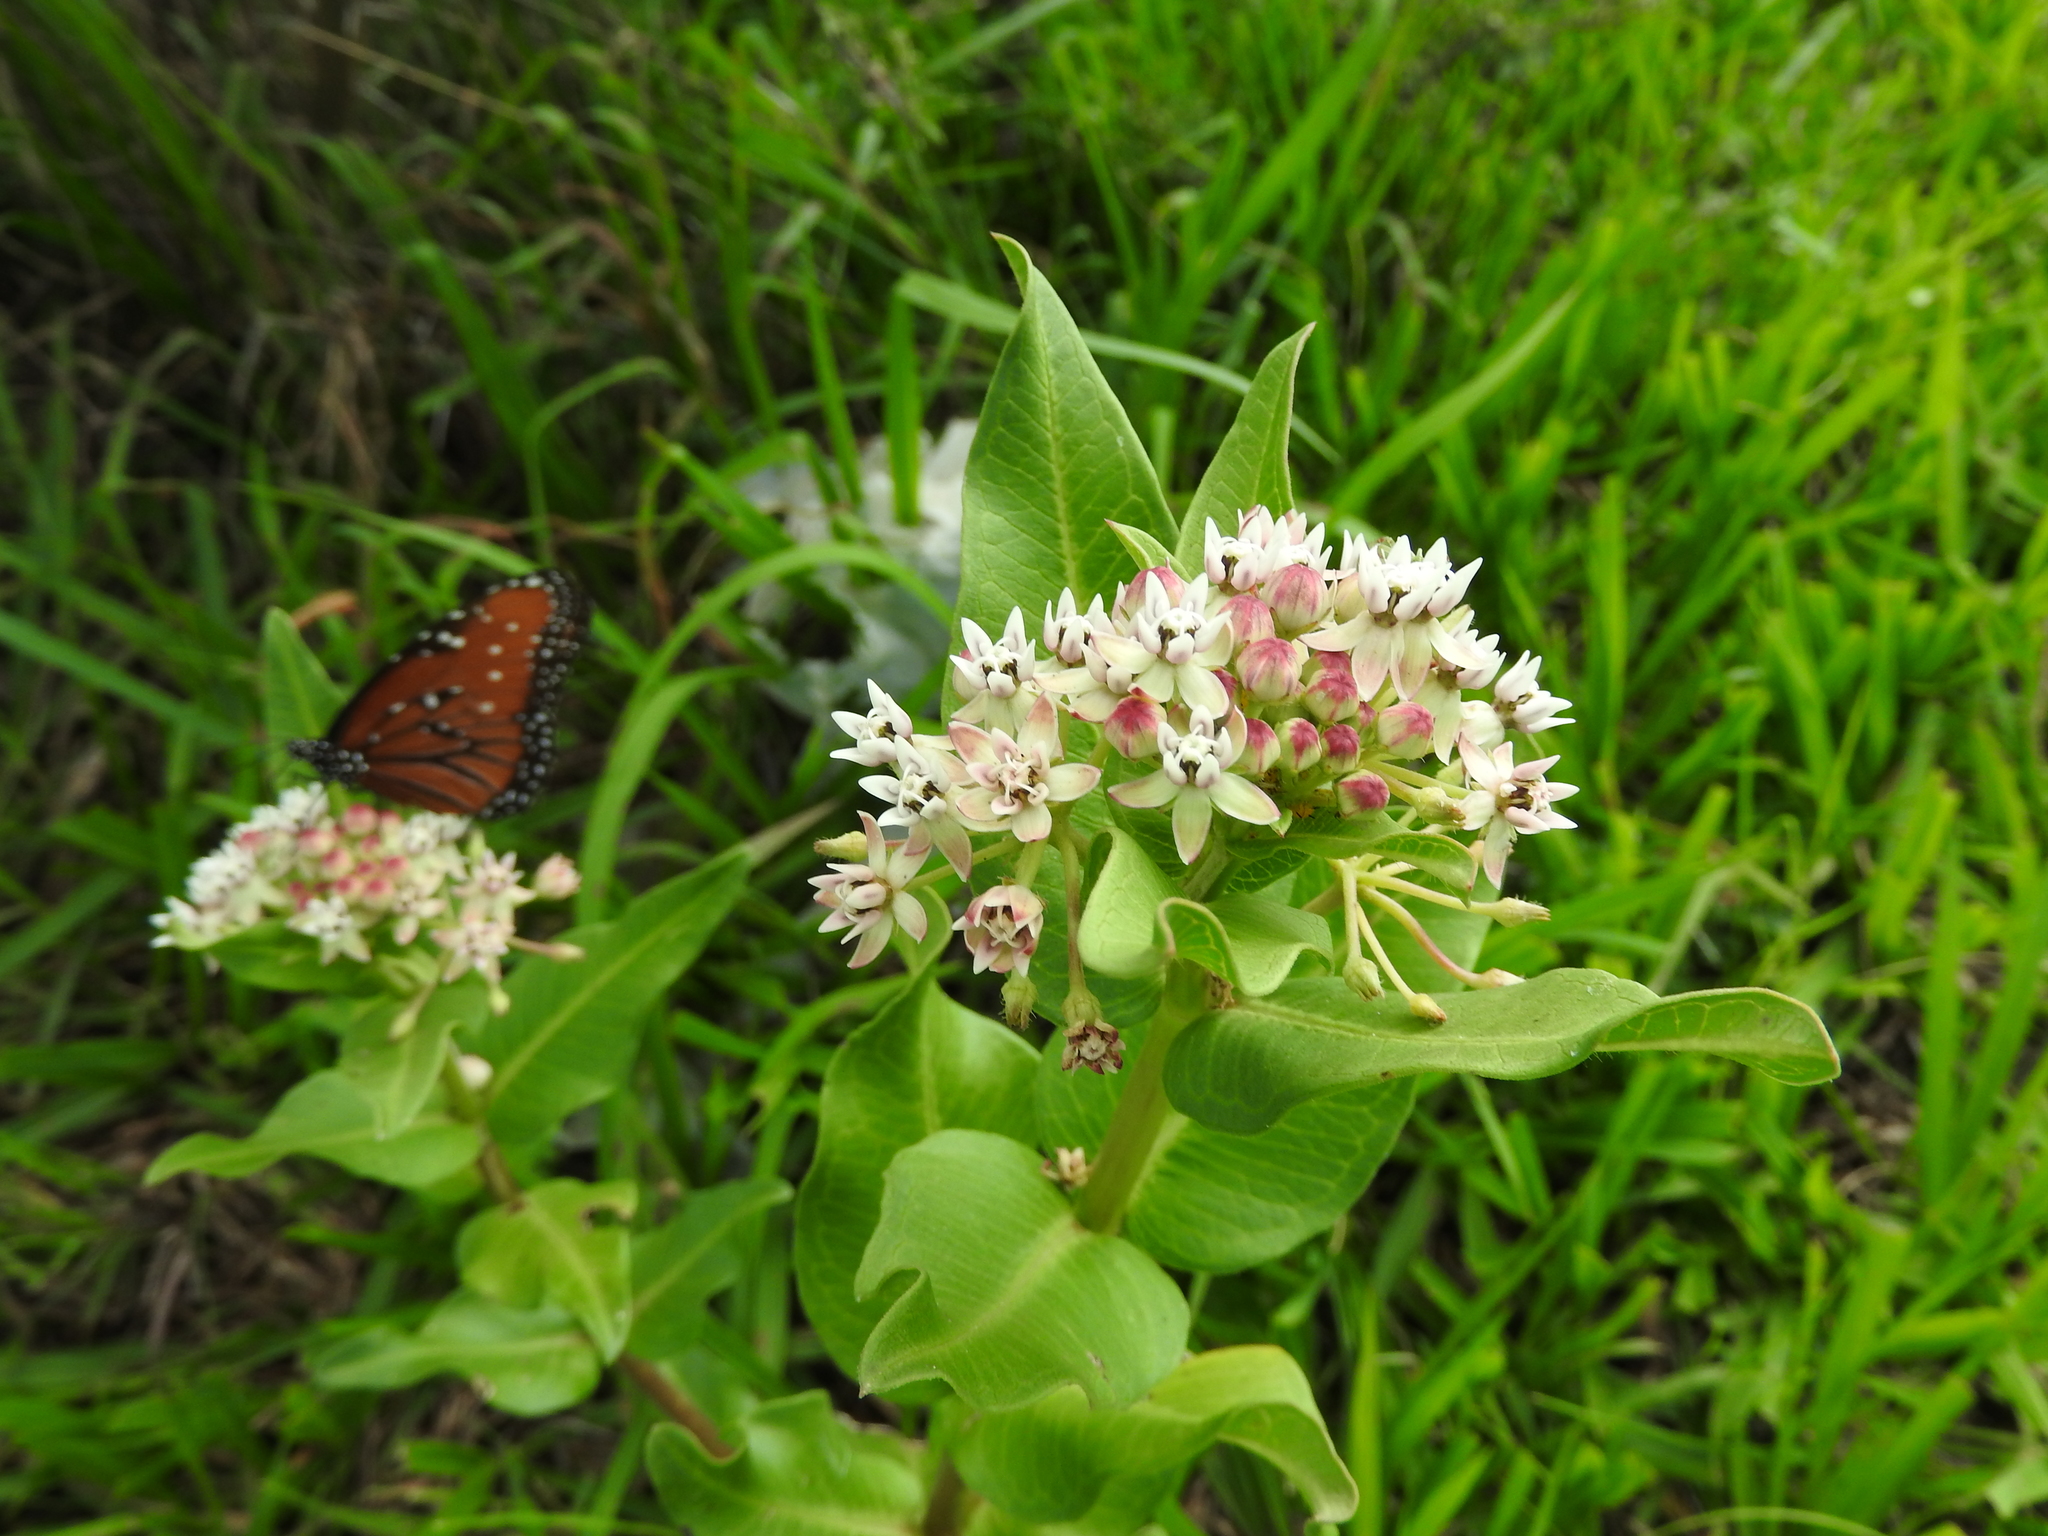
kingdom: Plantae
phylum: Tracheophyta
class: Magnoliopsida
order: Gentianales
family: Apocynaceae
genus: Asclepias
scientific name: Asclepias pratensis
